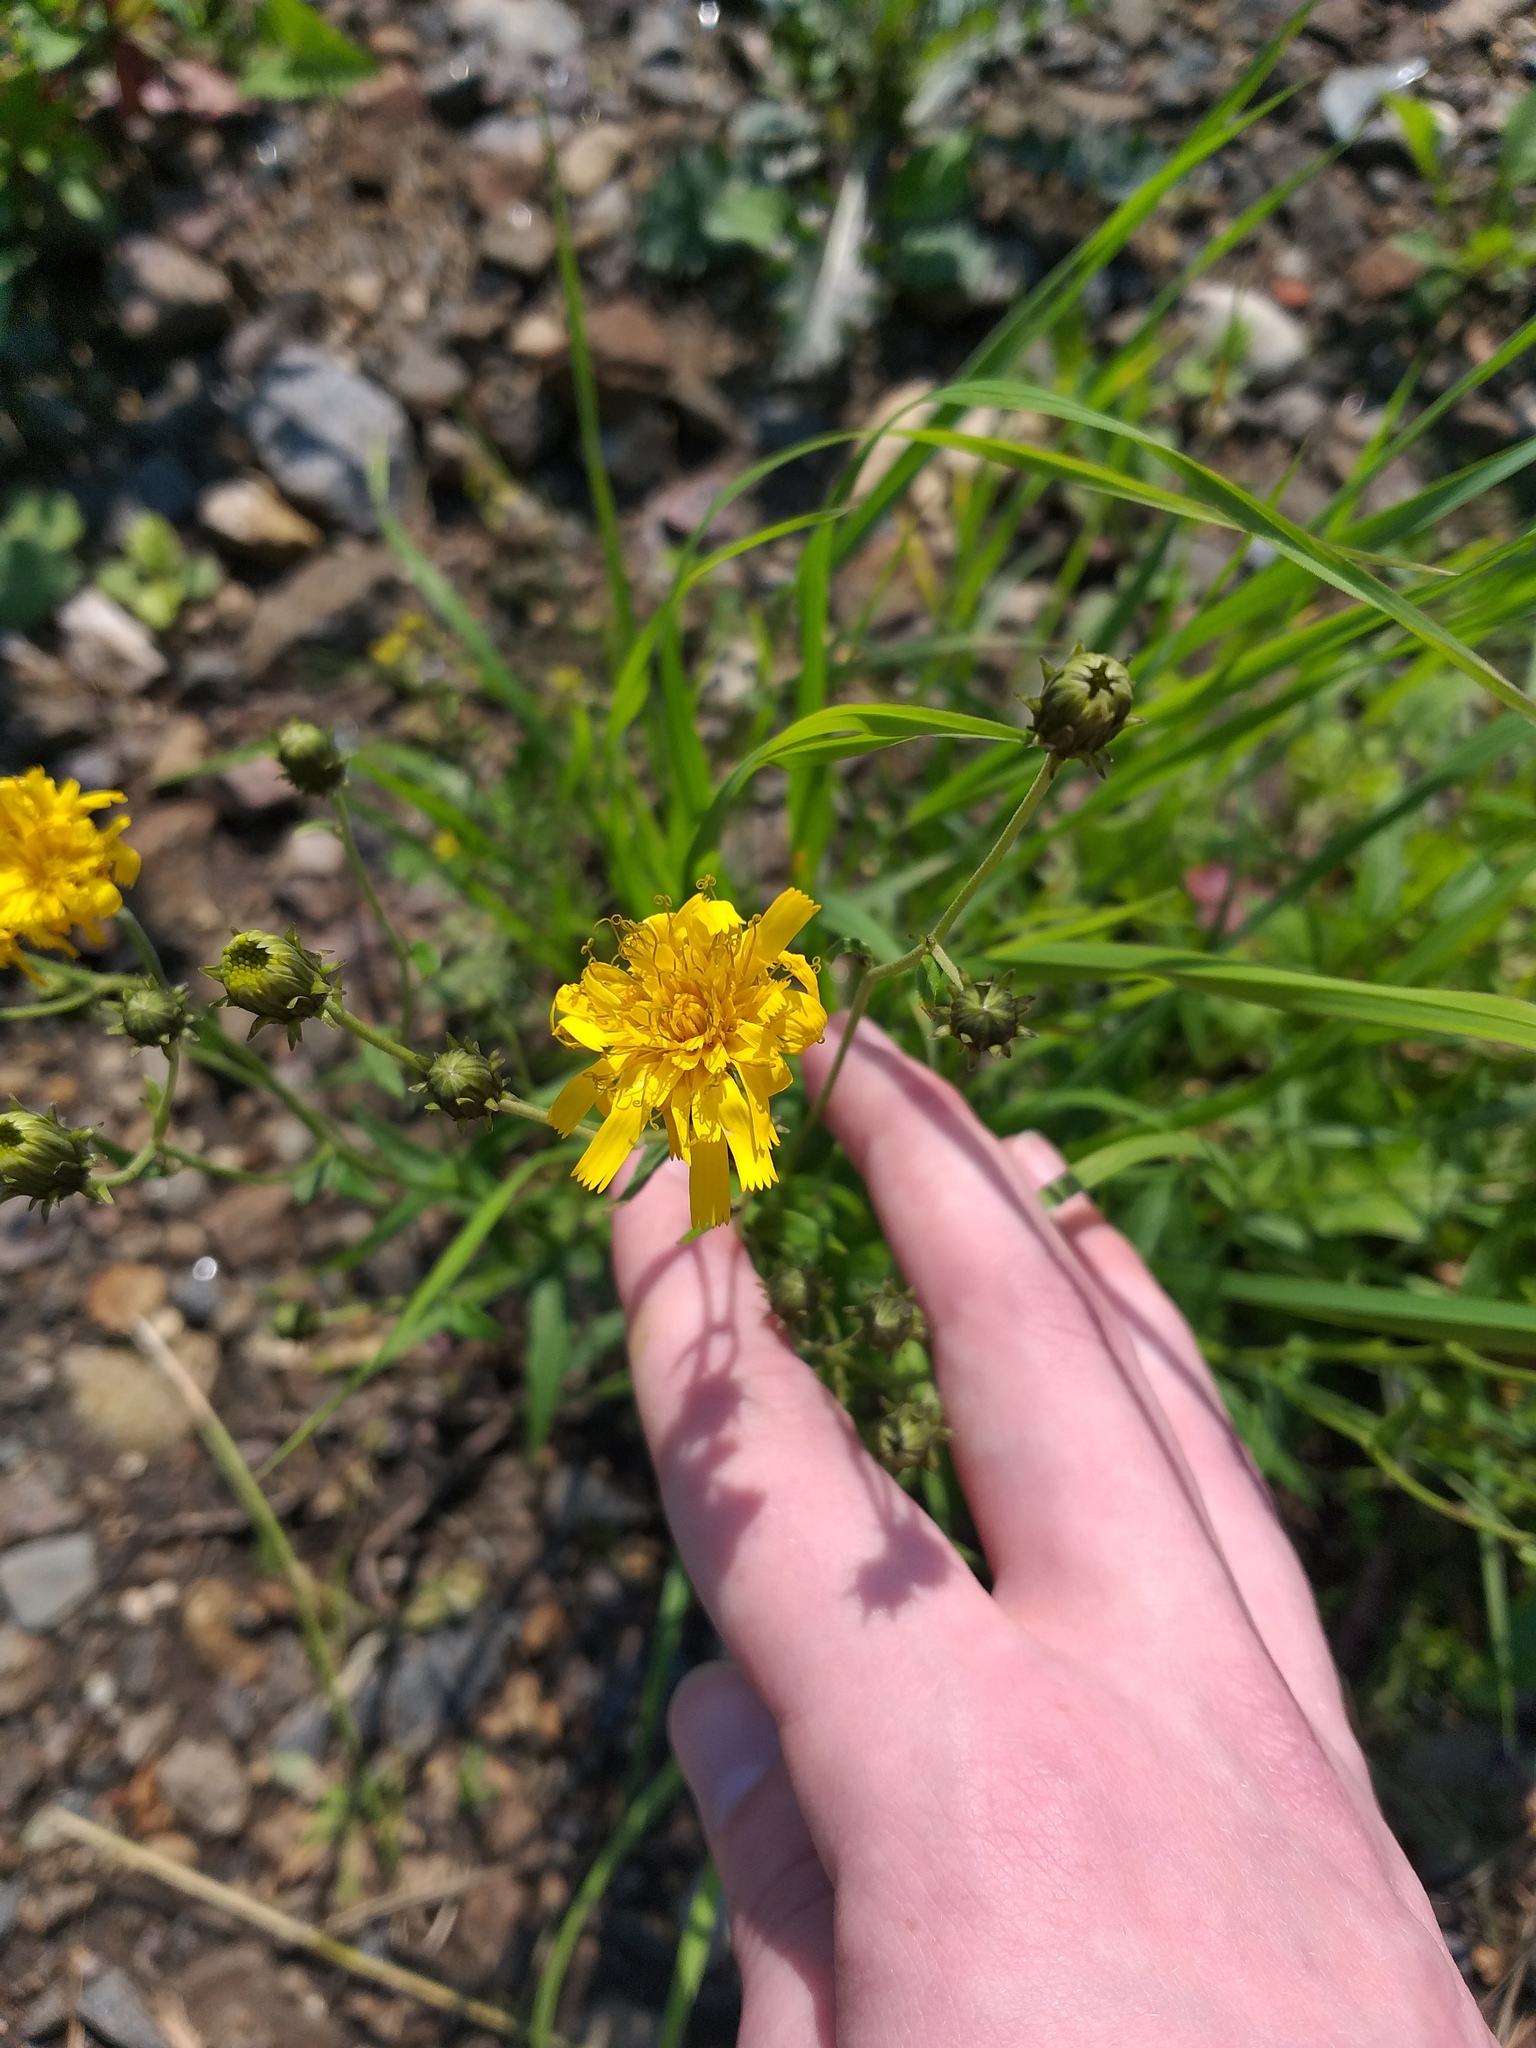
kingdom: Plantae
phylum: Tracheophyta
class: Magnoliopsida
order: Asterales
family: Asteraceae
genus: Hieracium
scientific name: Hieracium umbellatum
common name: Northern hawkweed
